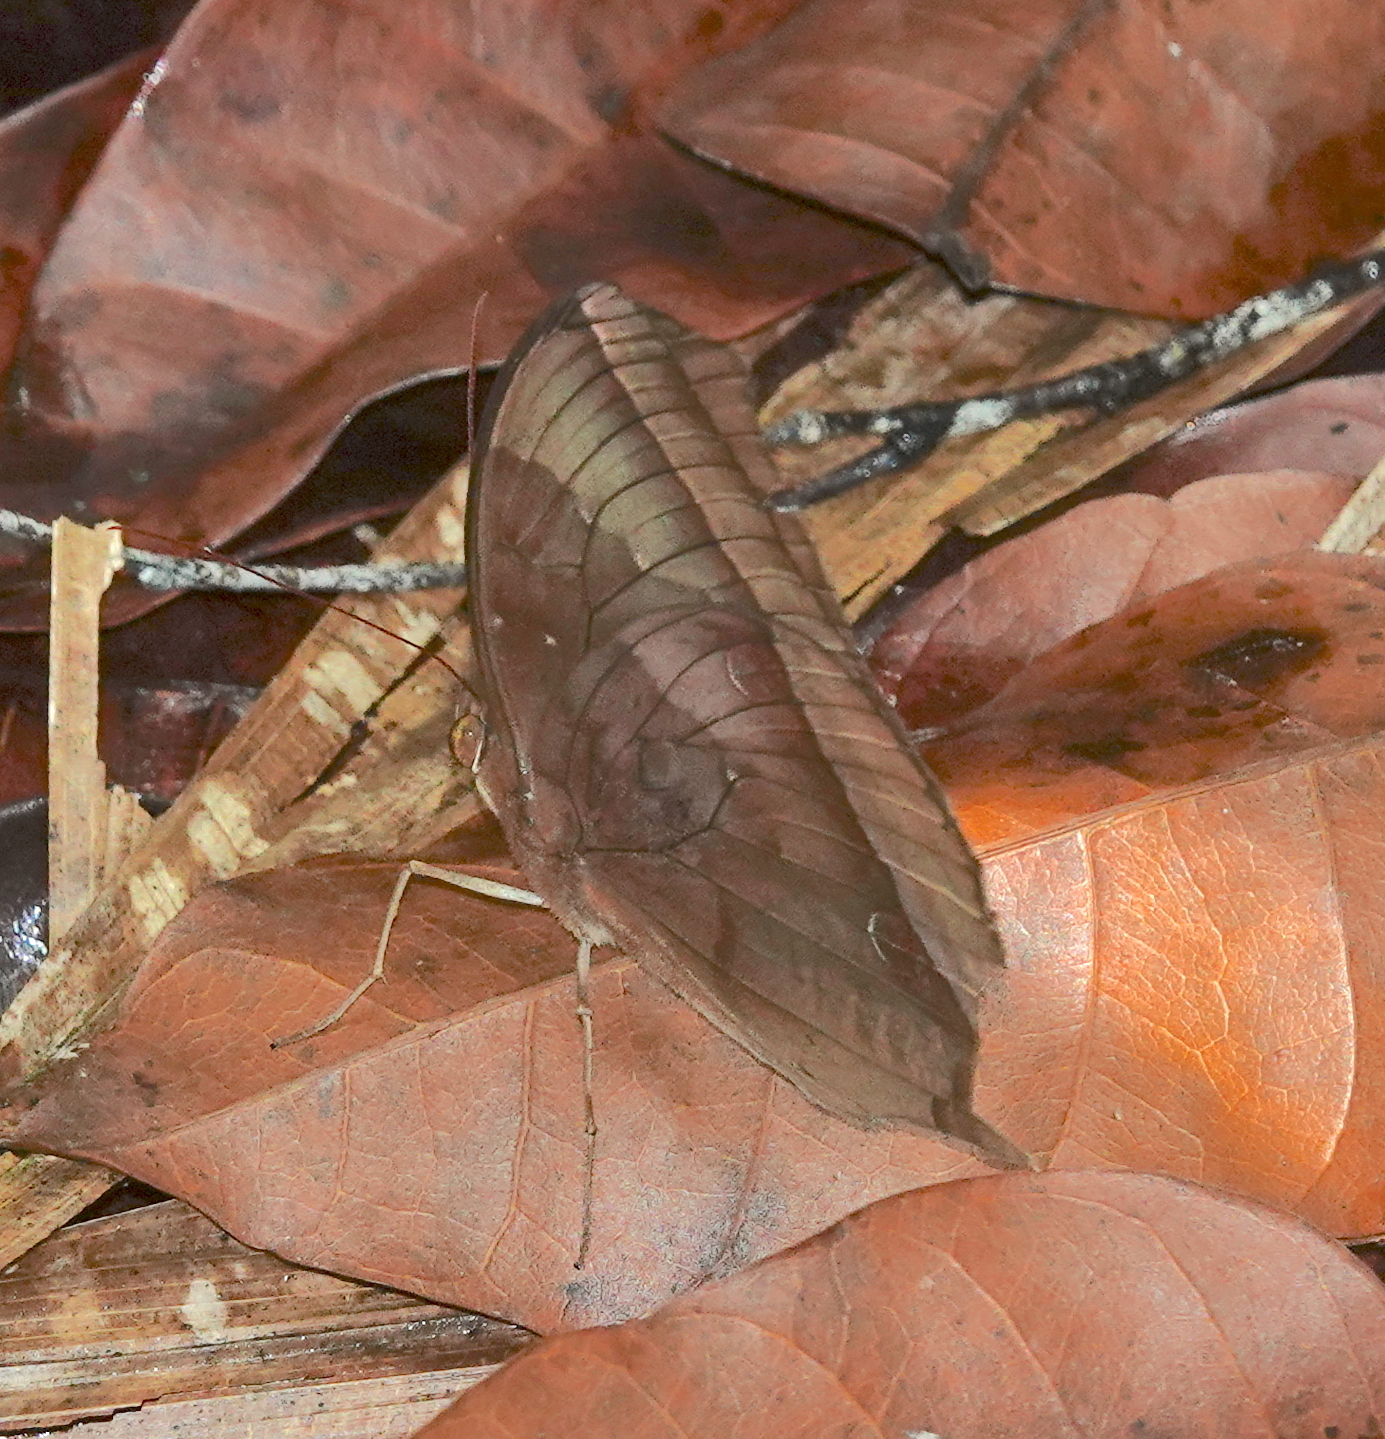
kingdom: Animalia
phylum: Arthropoda
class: Insecta
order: Lepidoptera
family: Nymphalidae
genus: Thaumantis
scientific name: Thaumantis noureddin
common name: Dark jungle glory
